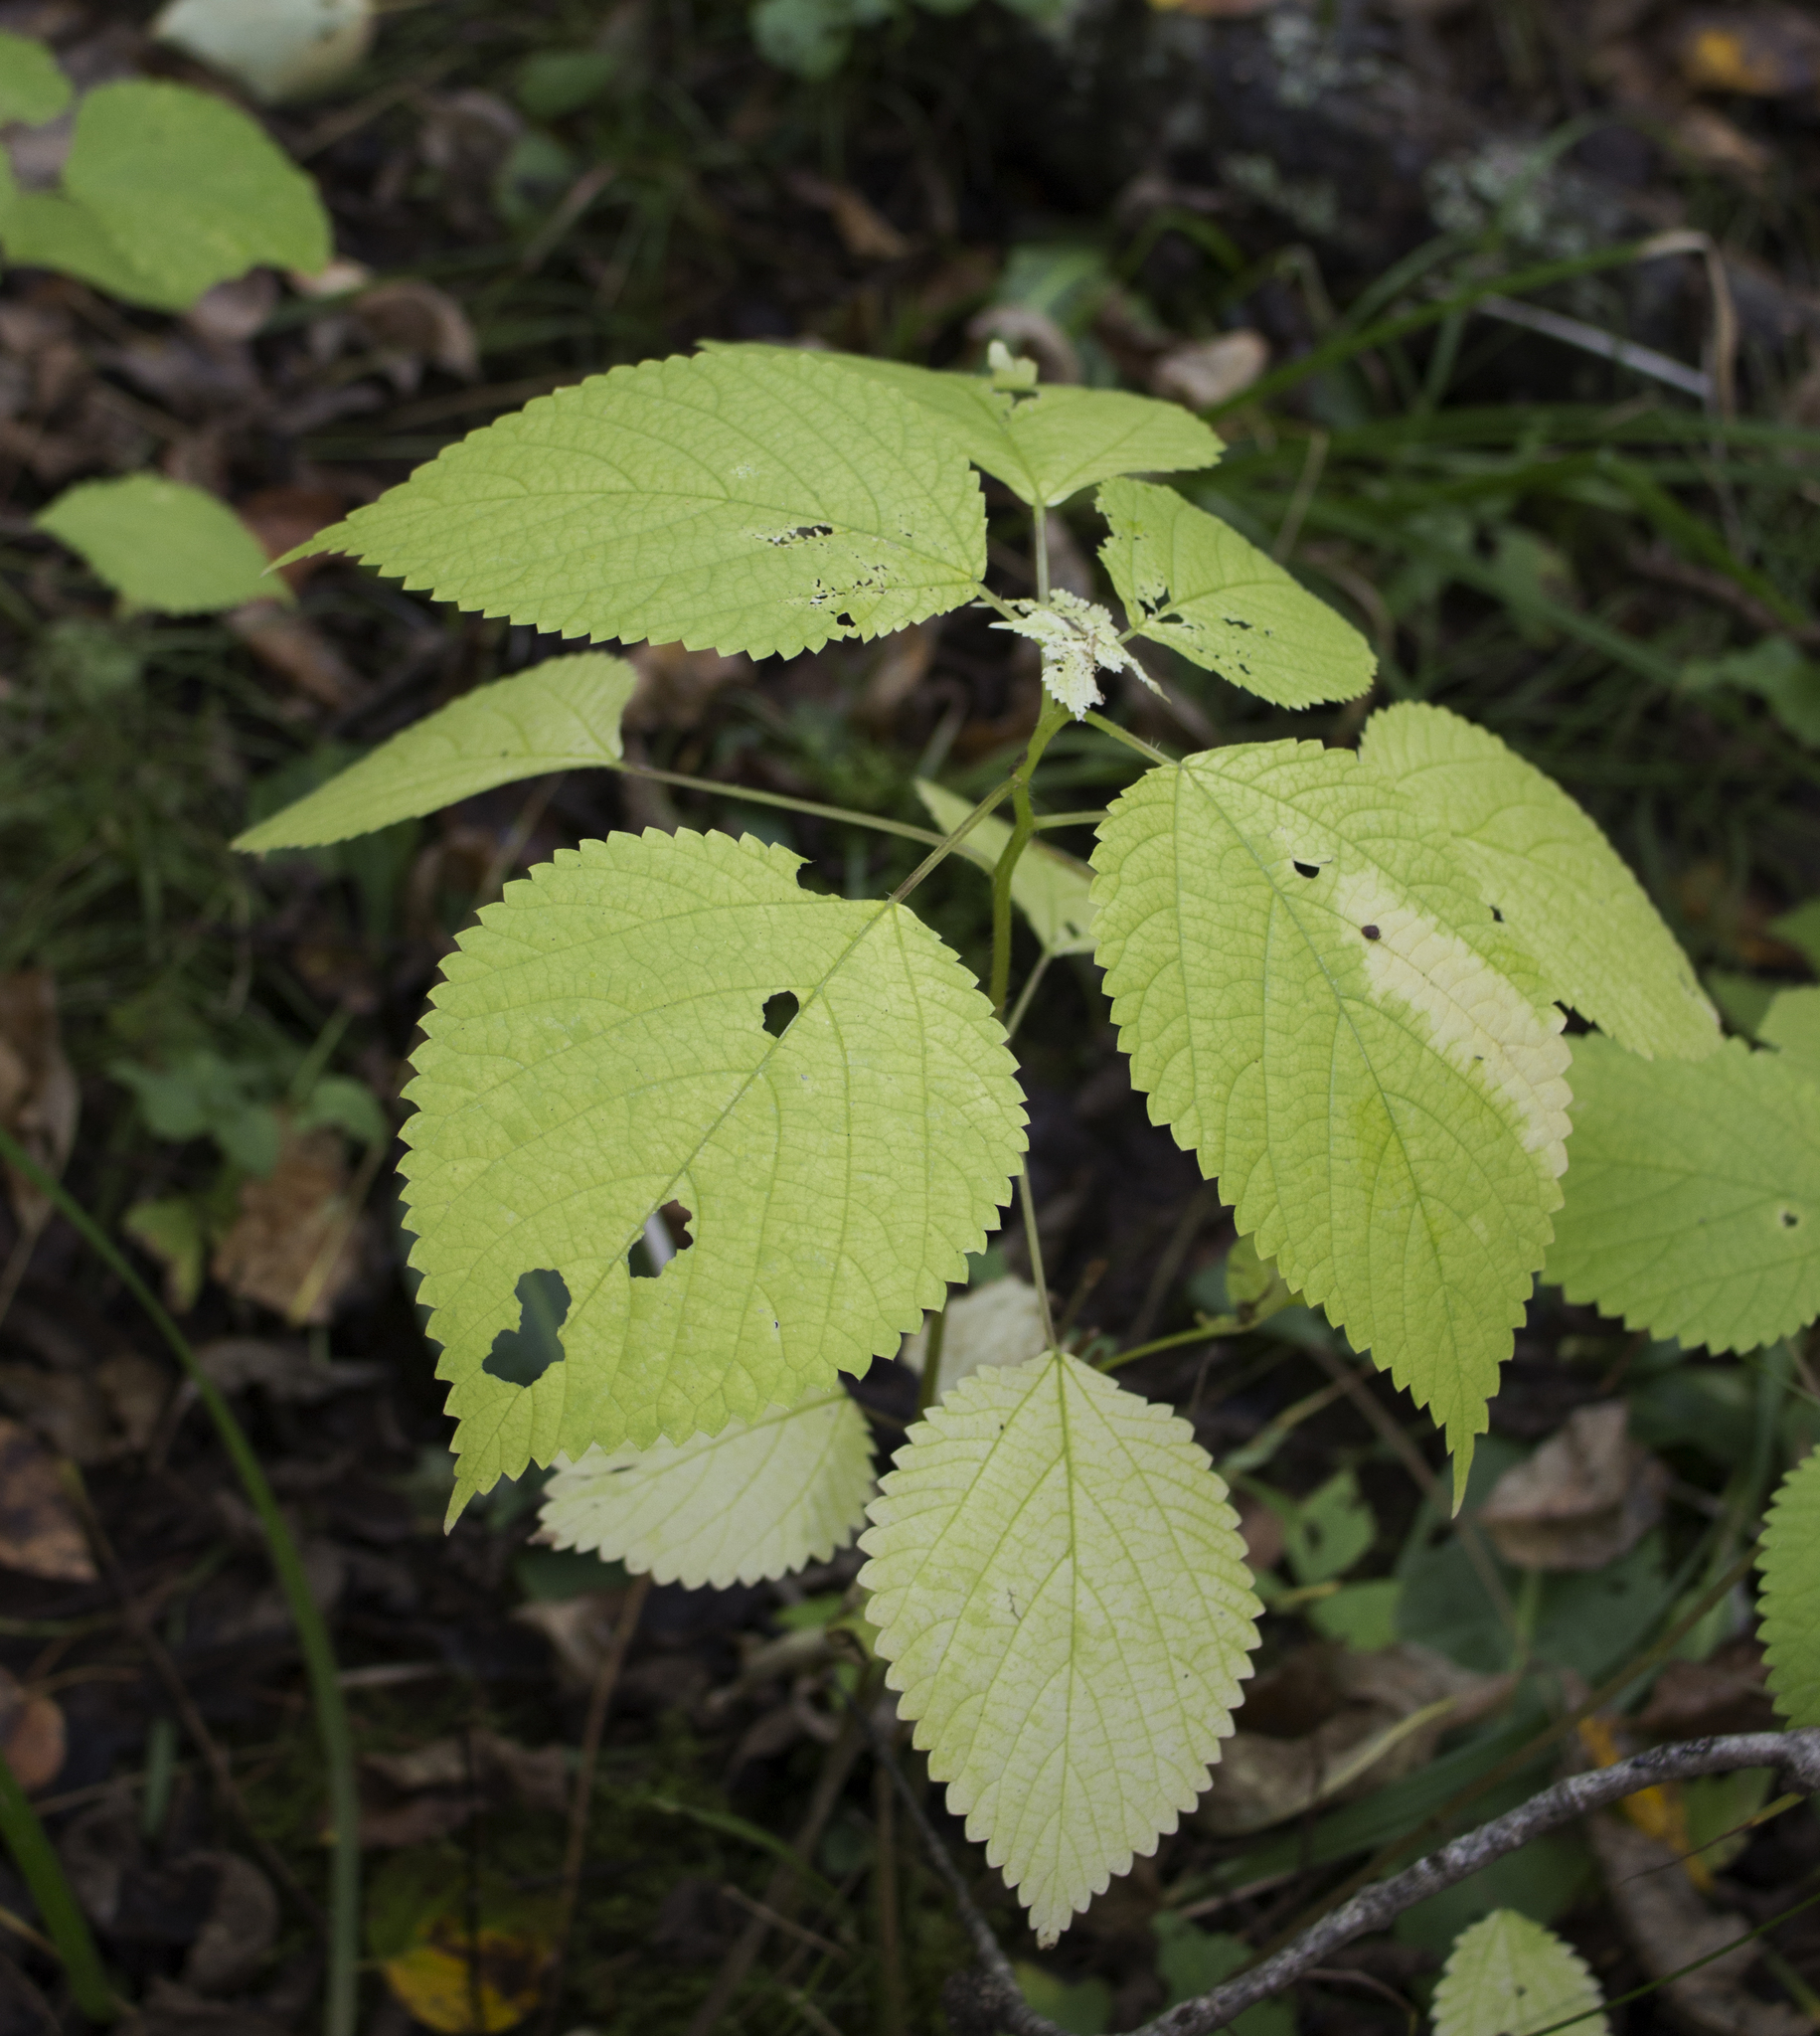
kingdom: Plantae
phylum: Tracheophyta
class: Magnoliopsida
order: Rosales
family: Urticaceae
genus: Laportea
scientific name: Laportea canadensis
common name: Canada nettle
